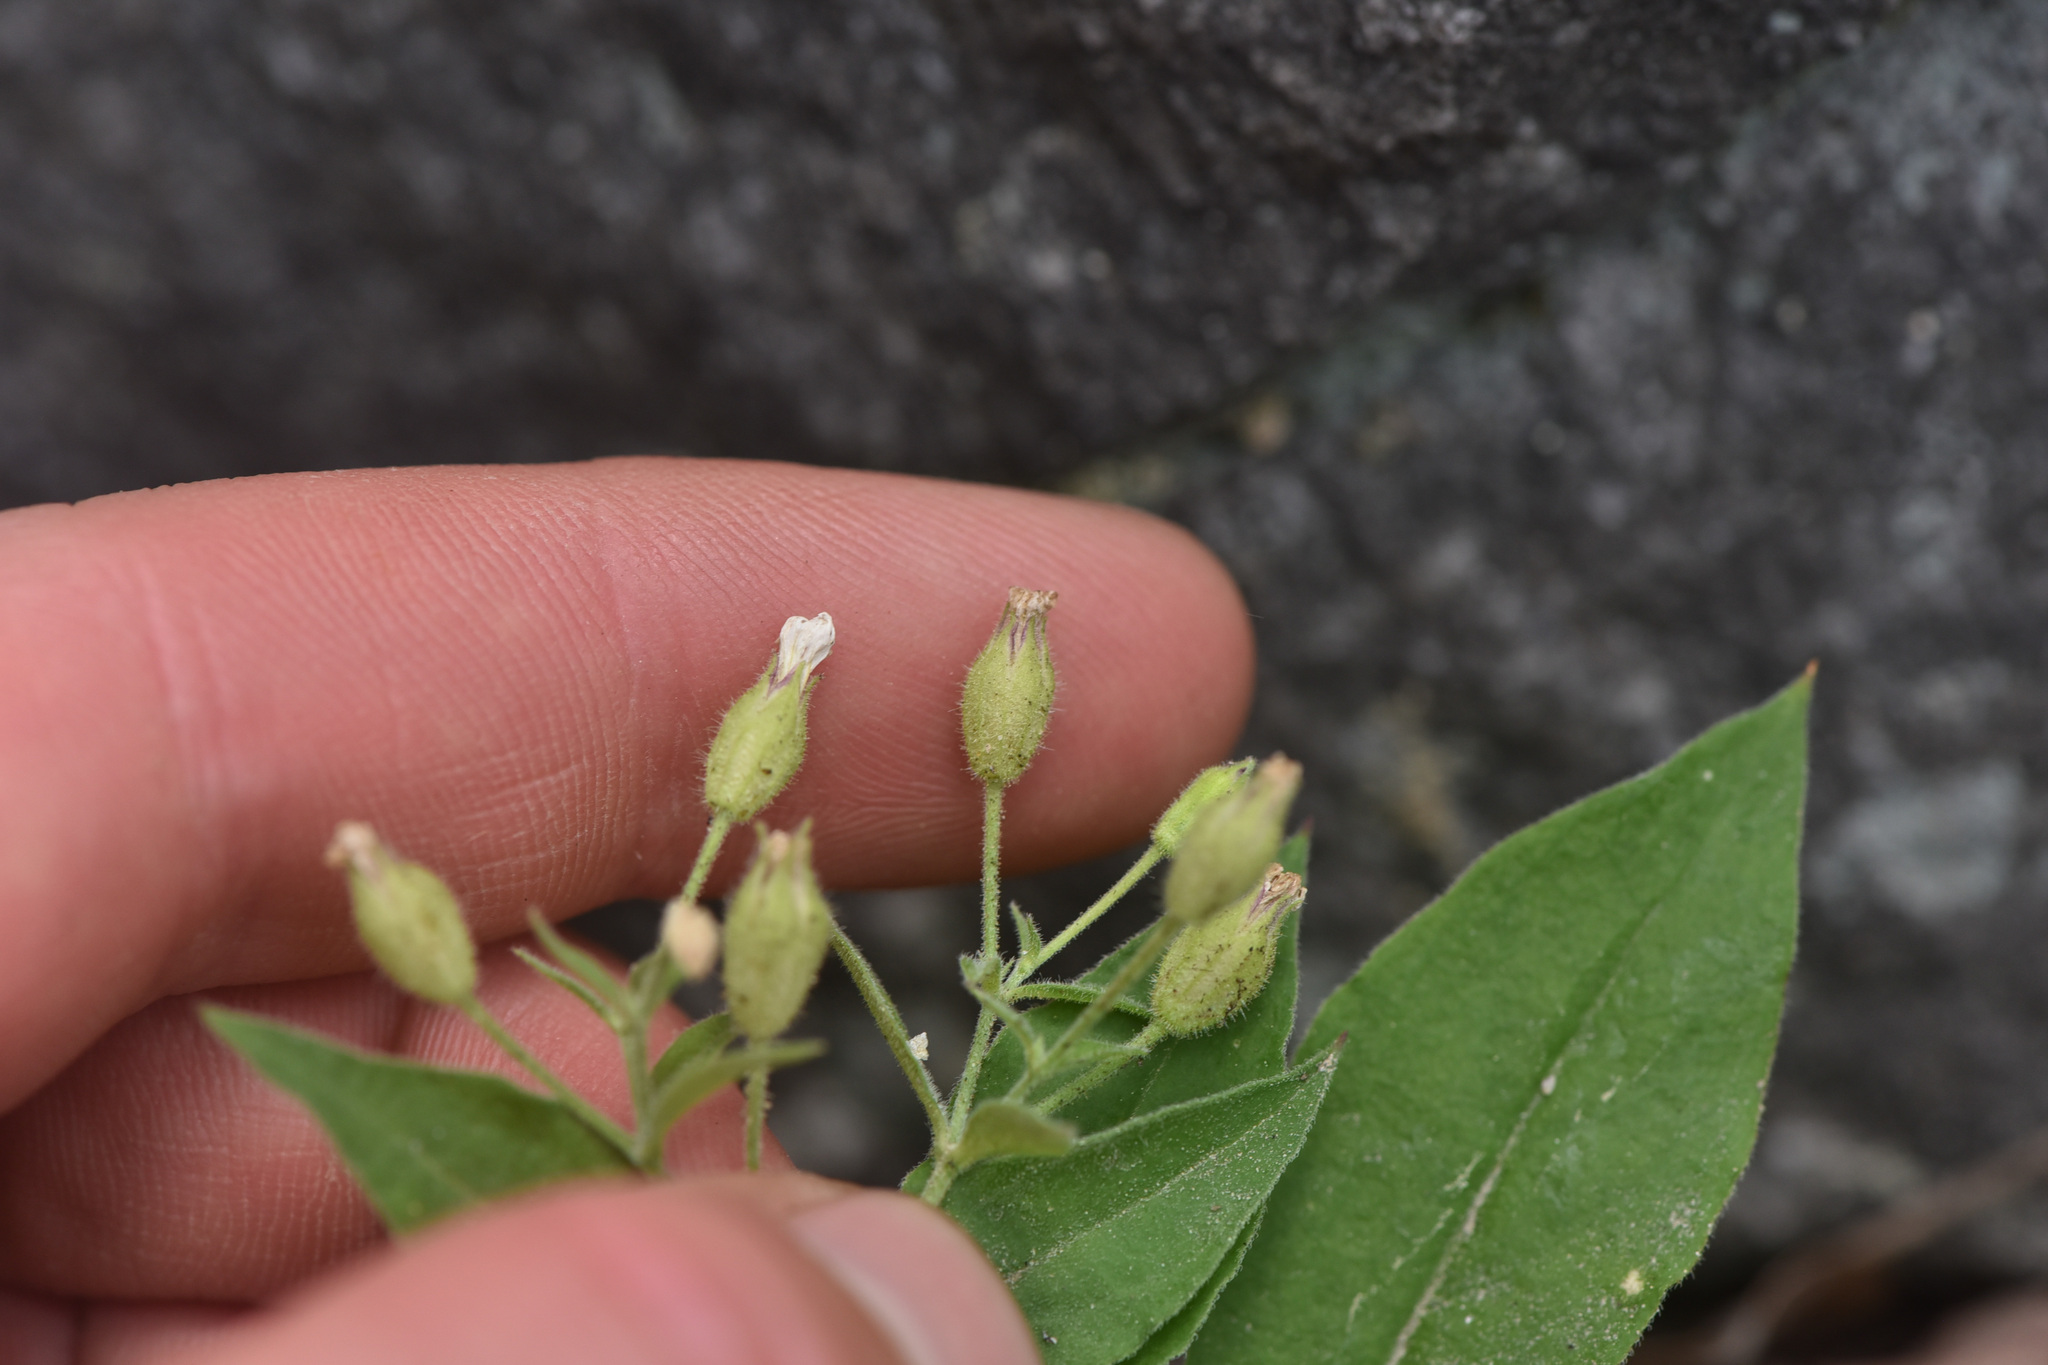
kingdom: Plantae
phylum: Tracheophyta
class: Magnoliopsida
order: Caryophyllales
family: Caryophyllaceae
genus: Silene
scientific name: Silene menziesii
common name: Menzies's catchfly
